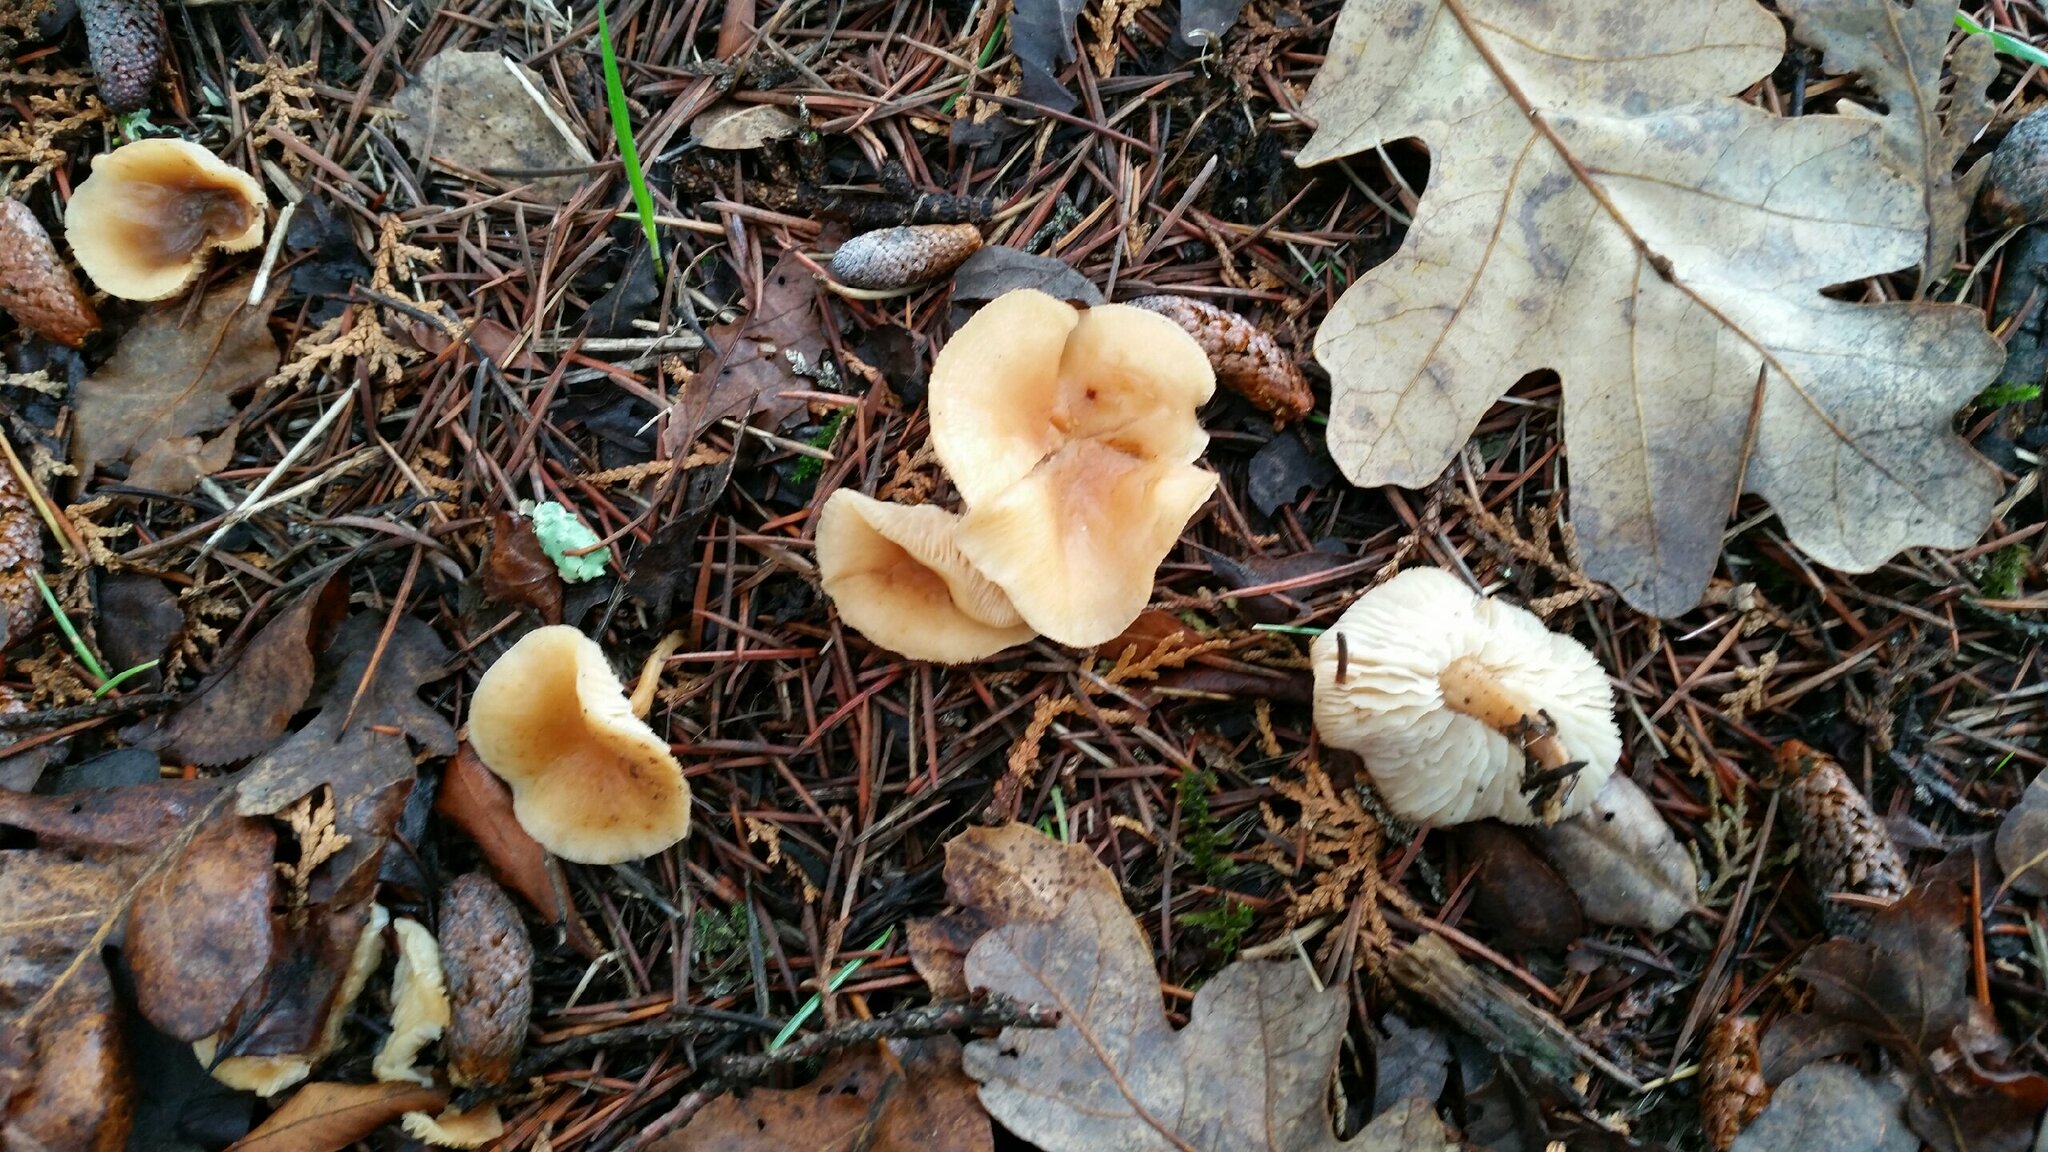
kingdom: Fungi
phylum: Basidiomycota
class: Agaricomycetes
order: Agaricales
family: Omphalotaceae
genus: Gymnopus
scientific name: Gymnopus dryophilus
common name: Penny top
